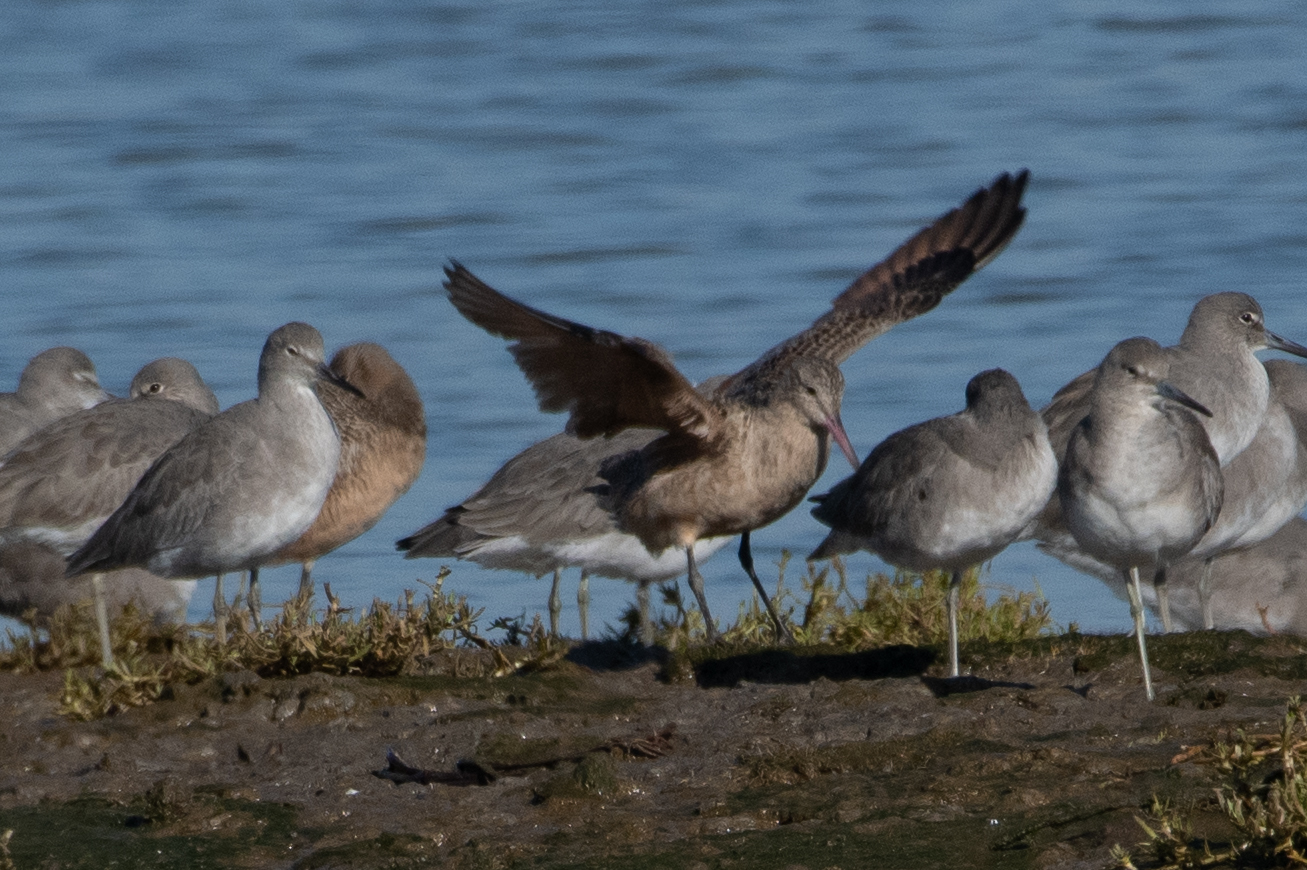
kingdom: Animalia
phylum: Chordata
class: Aves
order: Charadriiformes
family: Scolopacidae
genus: Tringa
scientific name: Tringa semipalmata
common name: Willet
